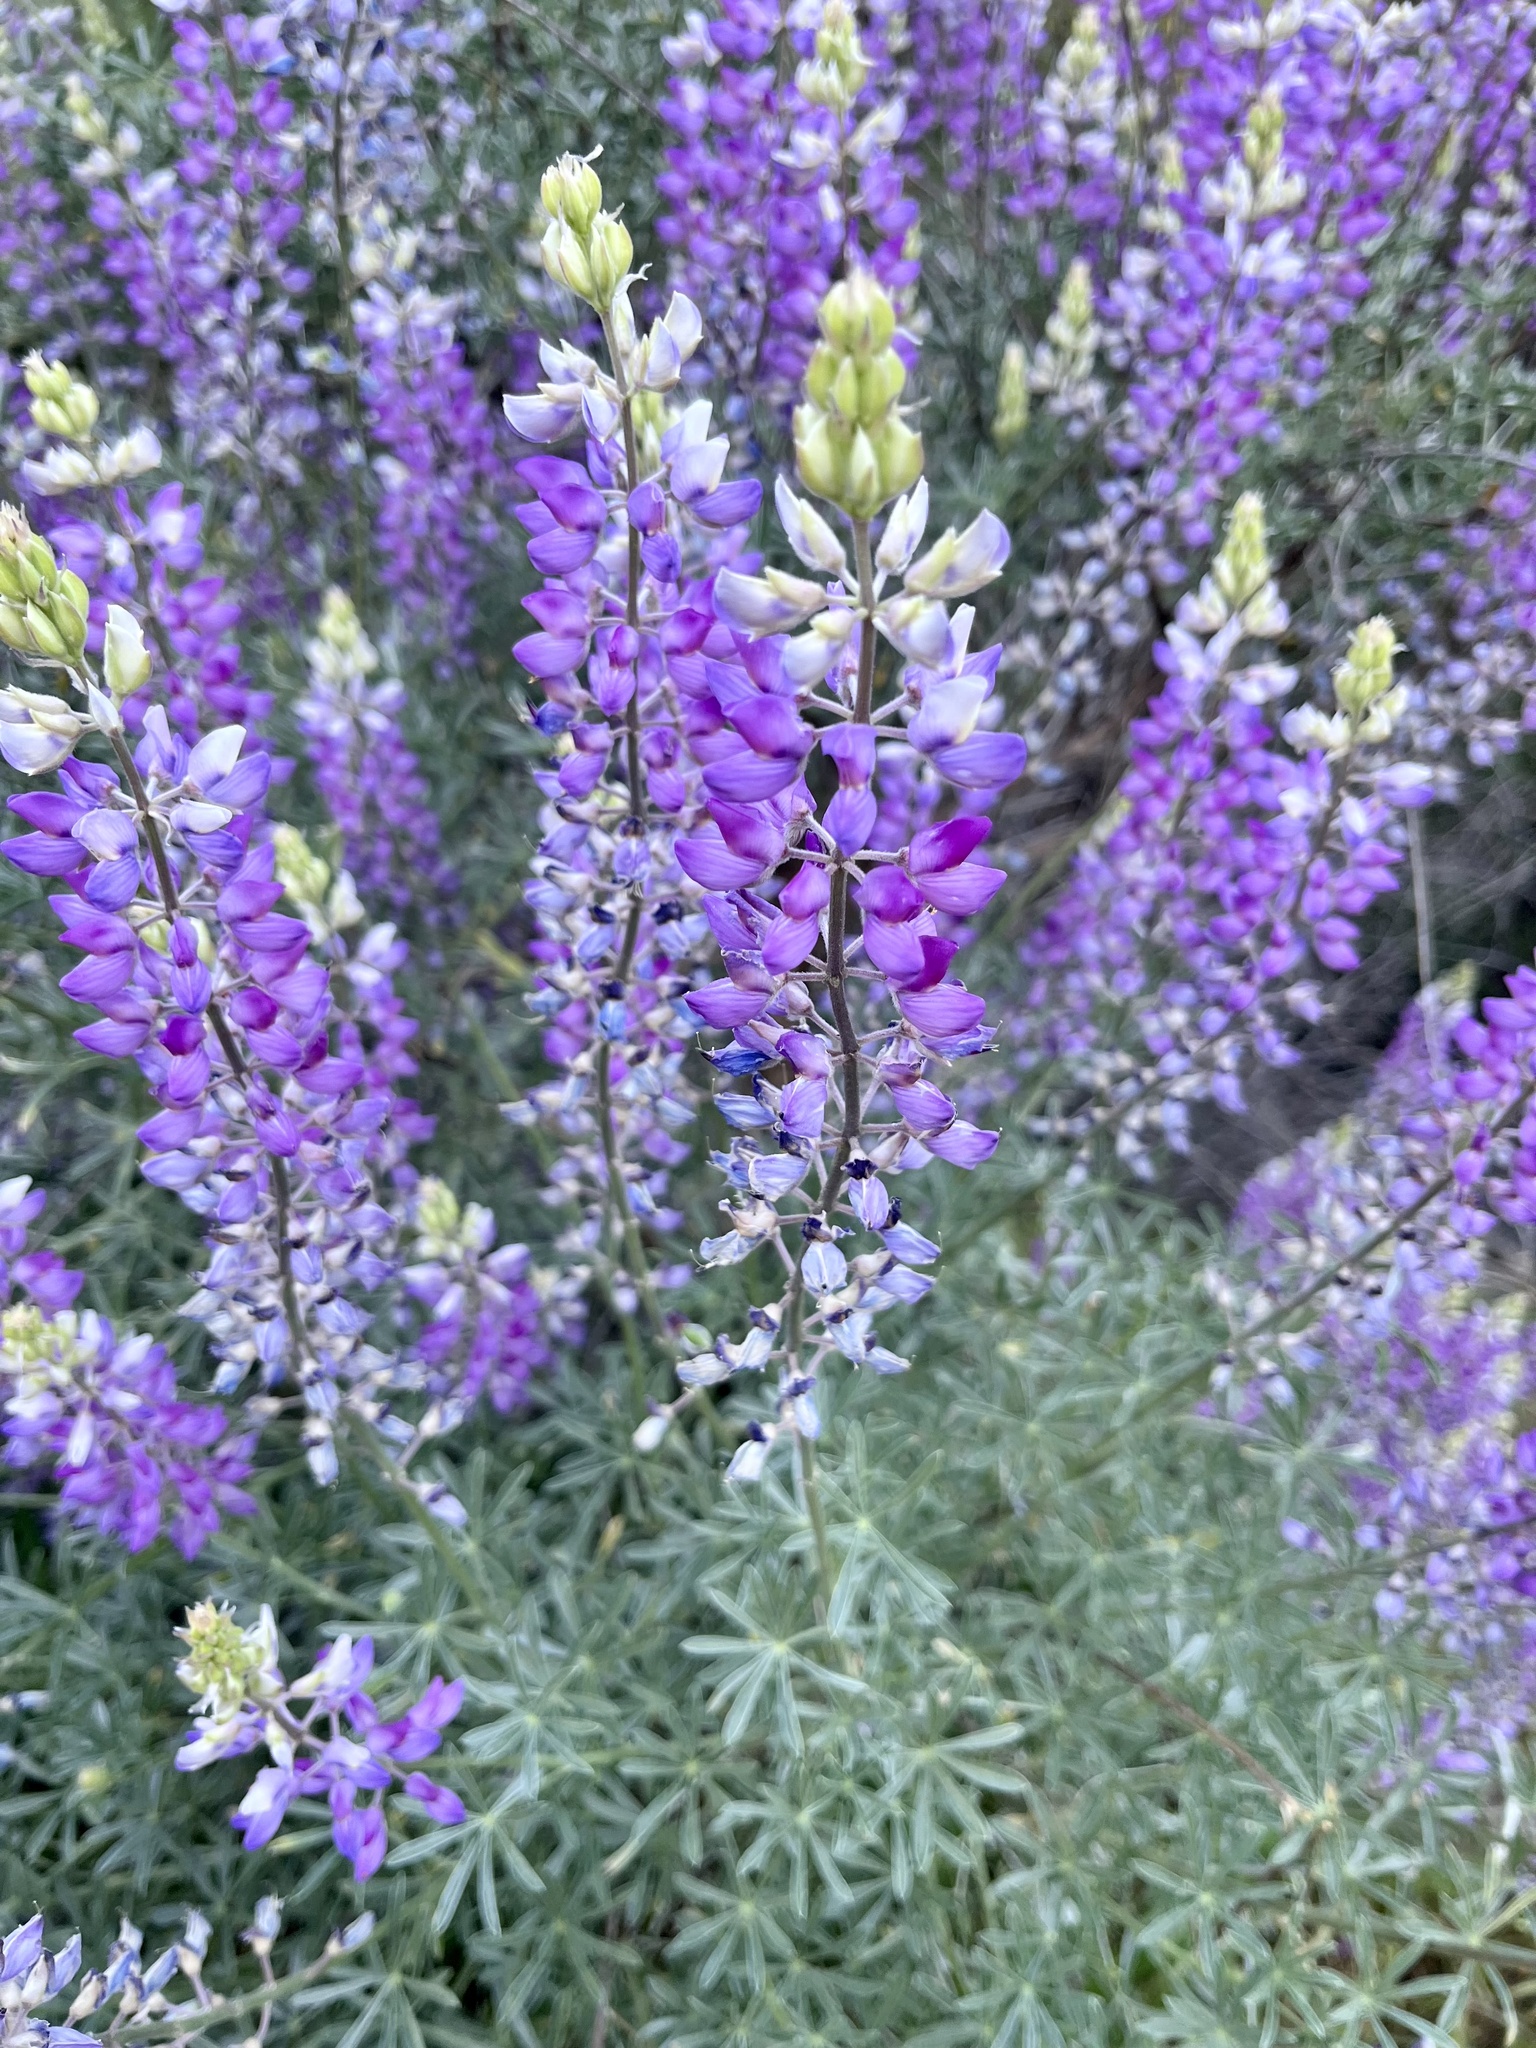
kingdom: Plantae
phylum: Tracheophyta
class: Magnoliopsida
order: Fabales
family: Fabaceae
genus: Lupinus
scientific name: Lupinus albifrons
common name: Foothill lupine
